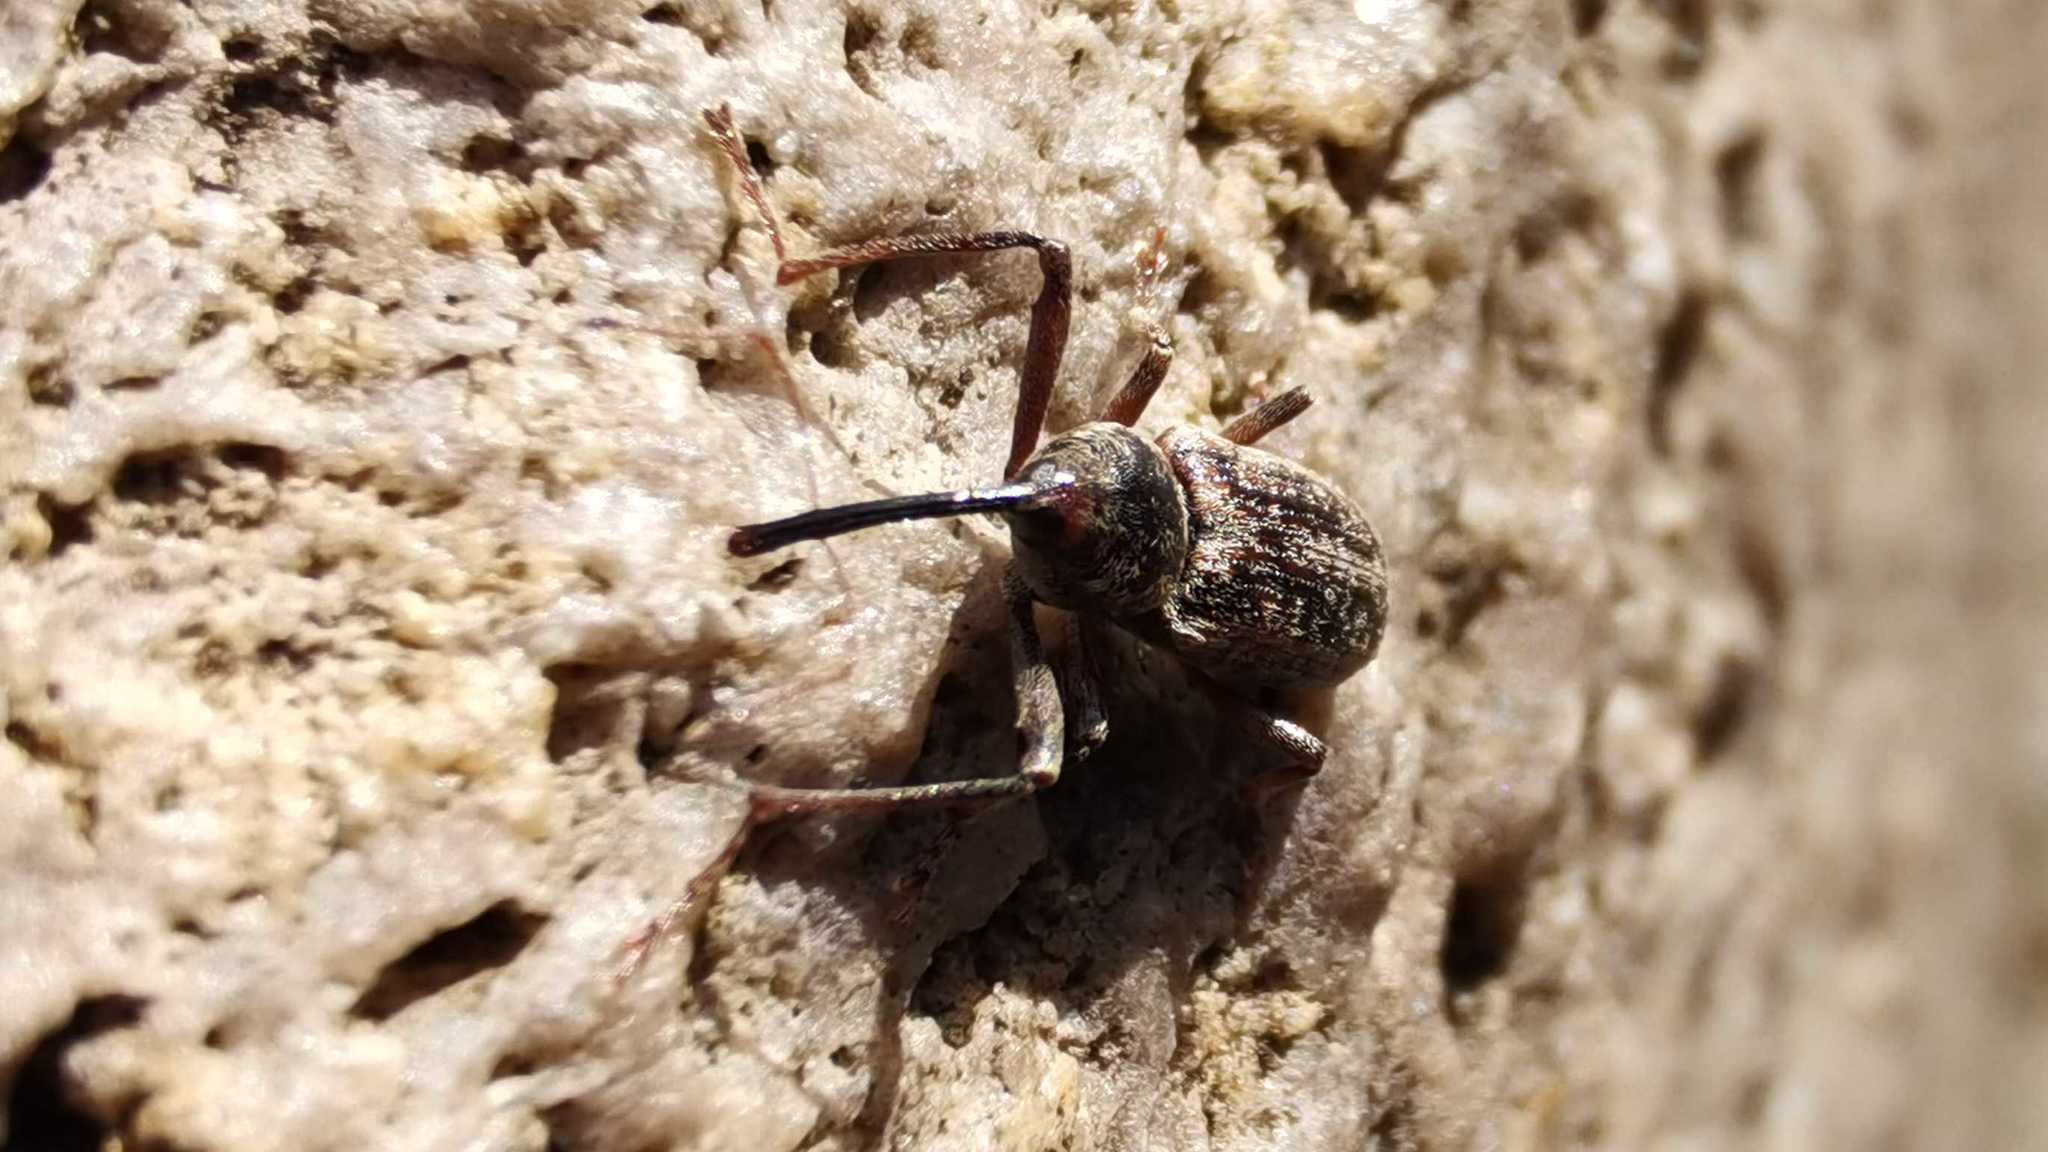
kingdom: Animalia
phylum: Arthropoda
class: Insecta
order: Coleoptera
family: Curculionidae
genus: Dorytomus
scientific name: Dorytomus longimanus
